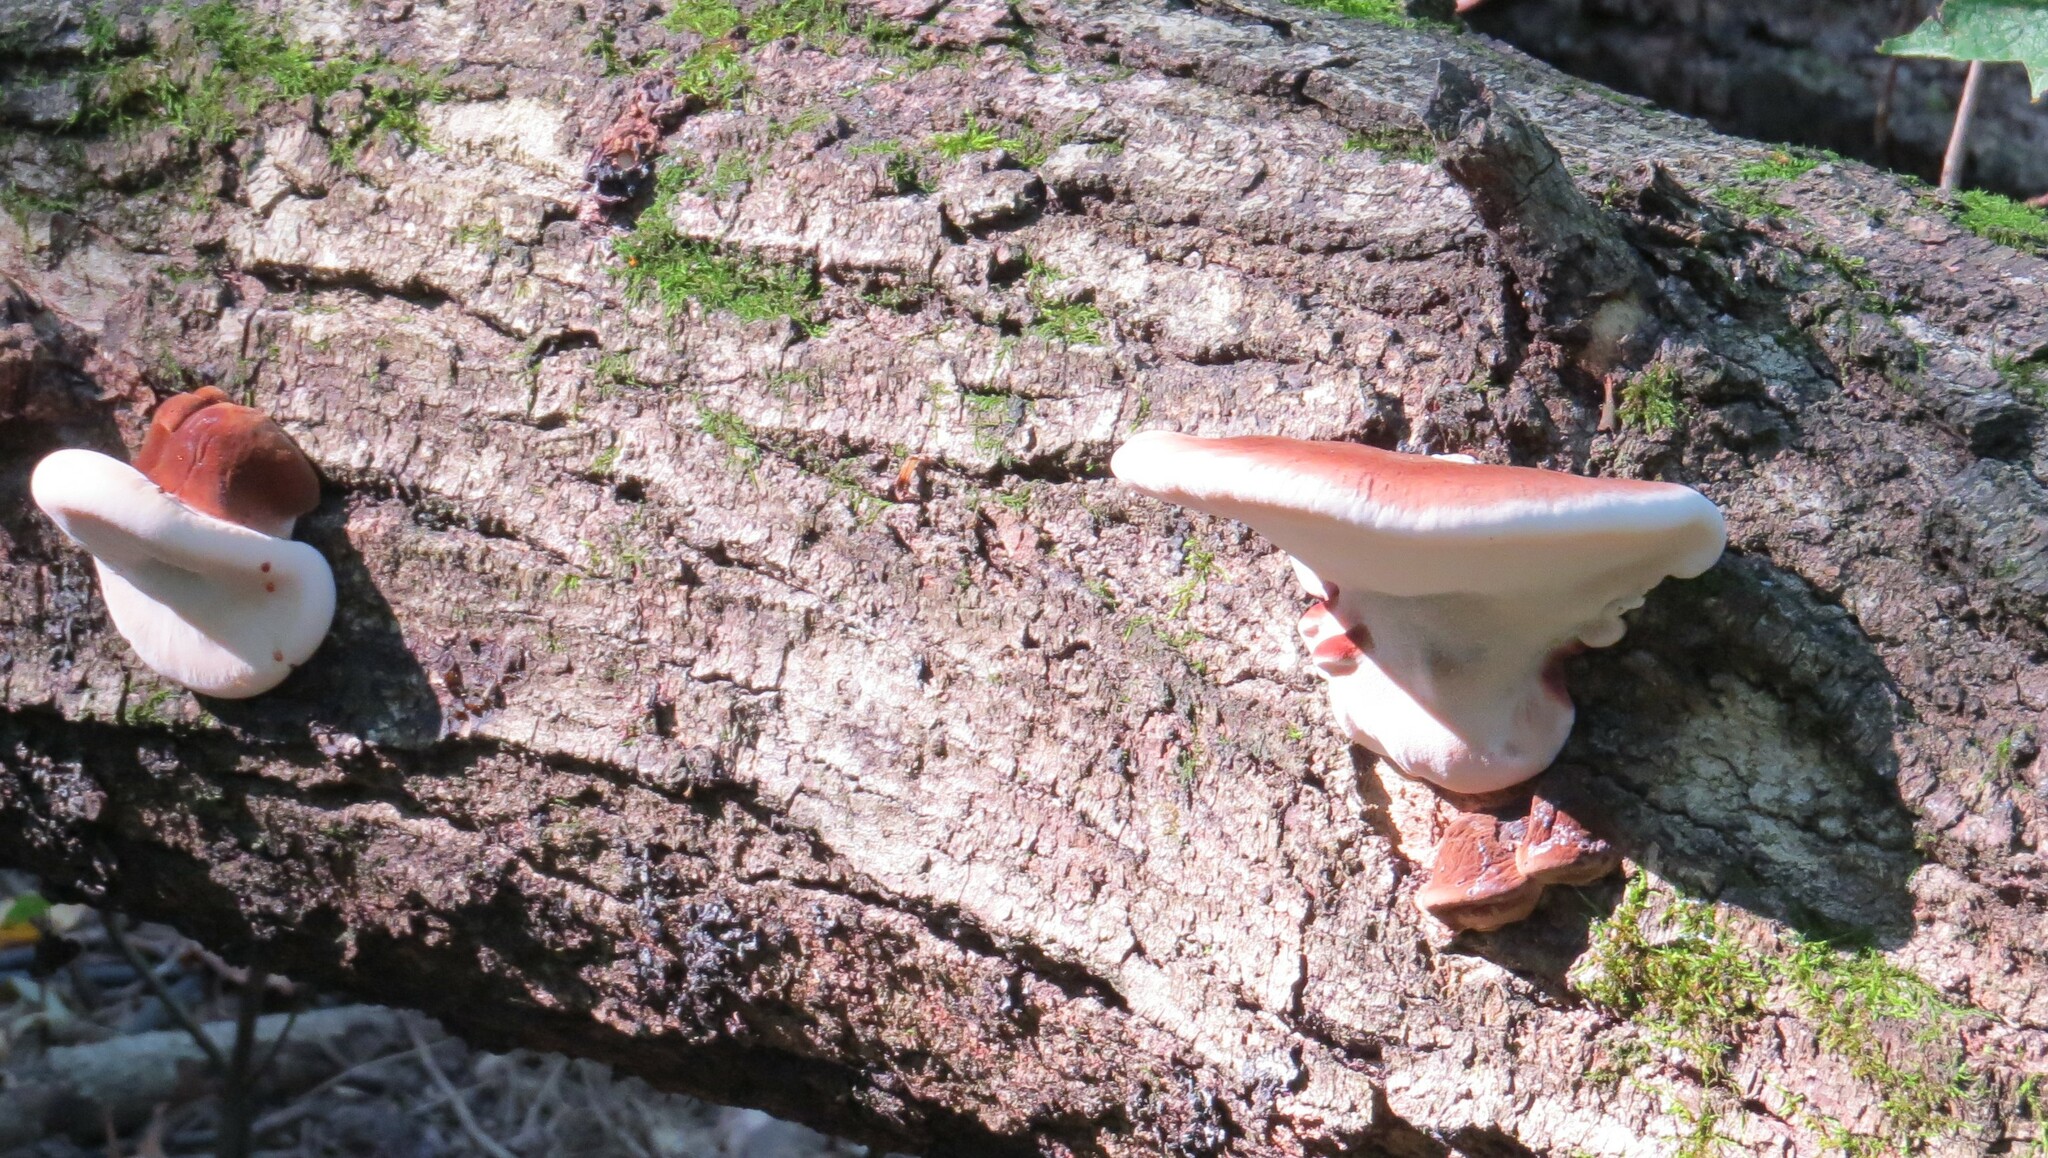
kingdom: Fungi
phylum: Basidiomycota
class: Agaricomycetes
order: Polyporales
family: Ischnodermataceae
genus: Ischnoderma
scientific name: Ischnoderma resinosum
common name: Resinous polypore
